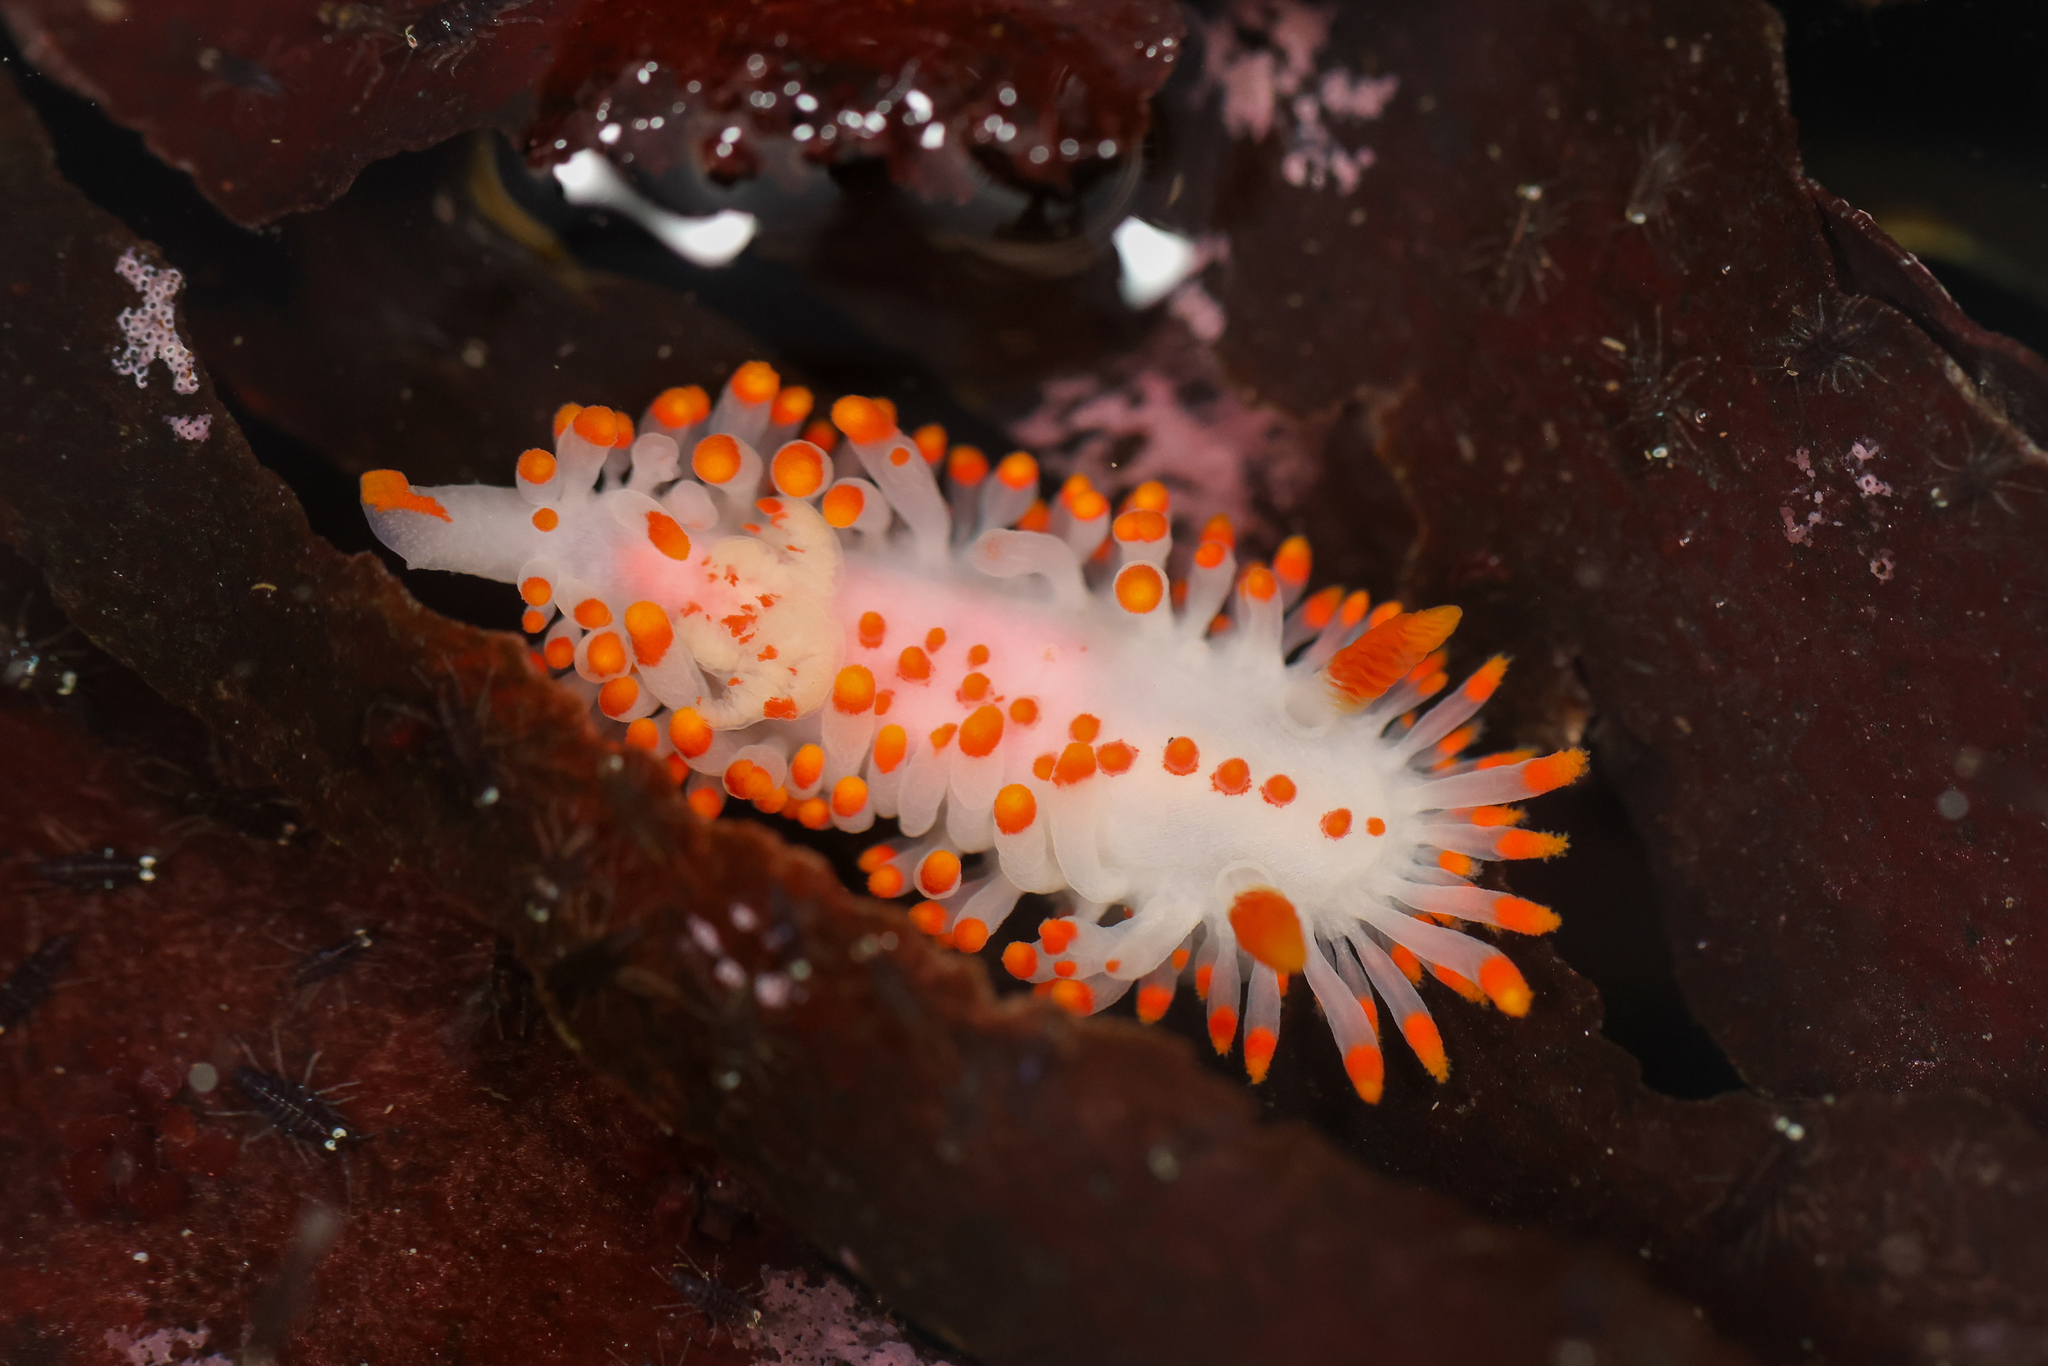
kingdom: Animalia
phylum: Mollusca
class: Gastropoda
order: Nudibranchia
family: Polyceridae
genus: Limacia
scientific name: Limacia mcdonaldi
